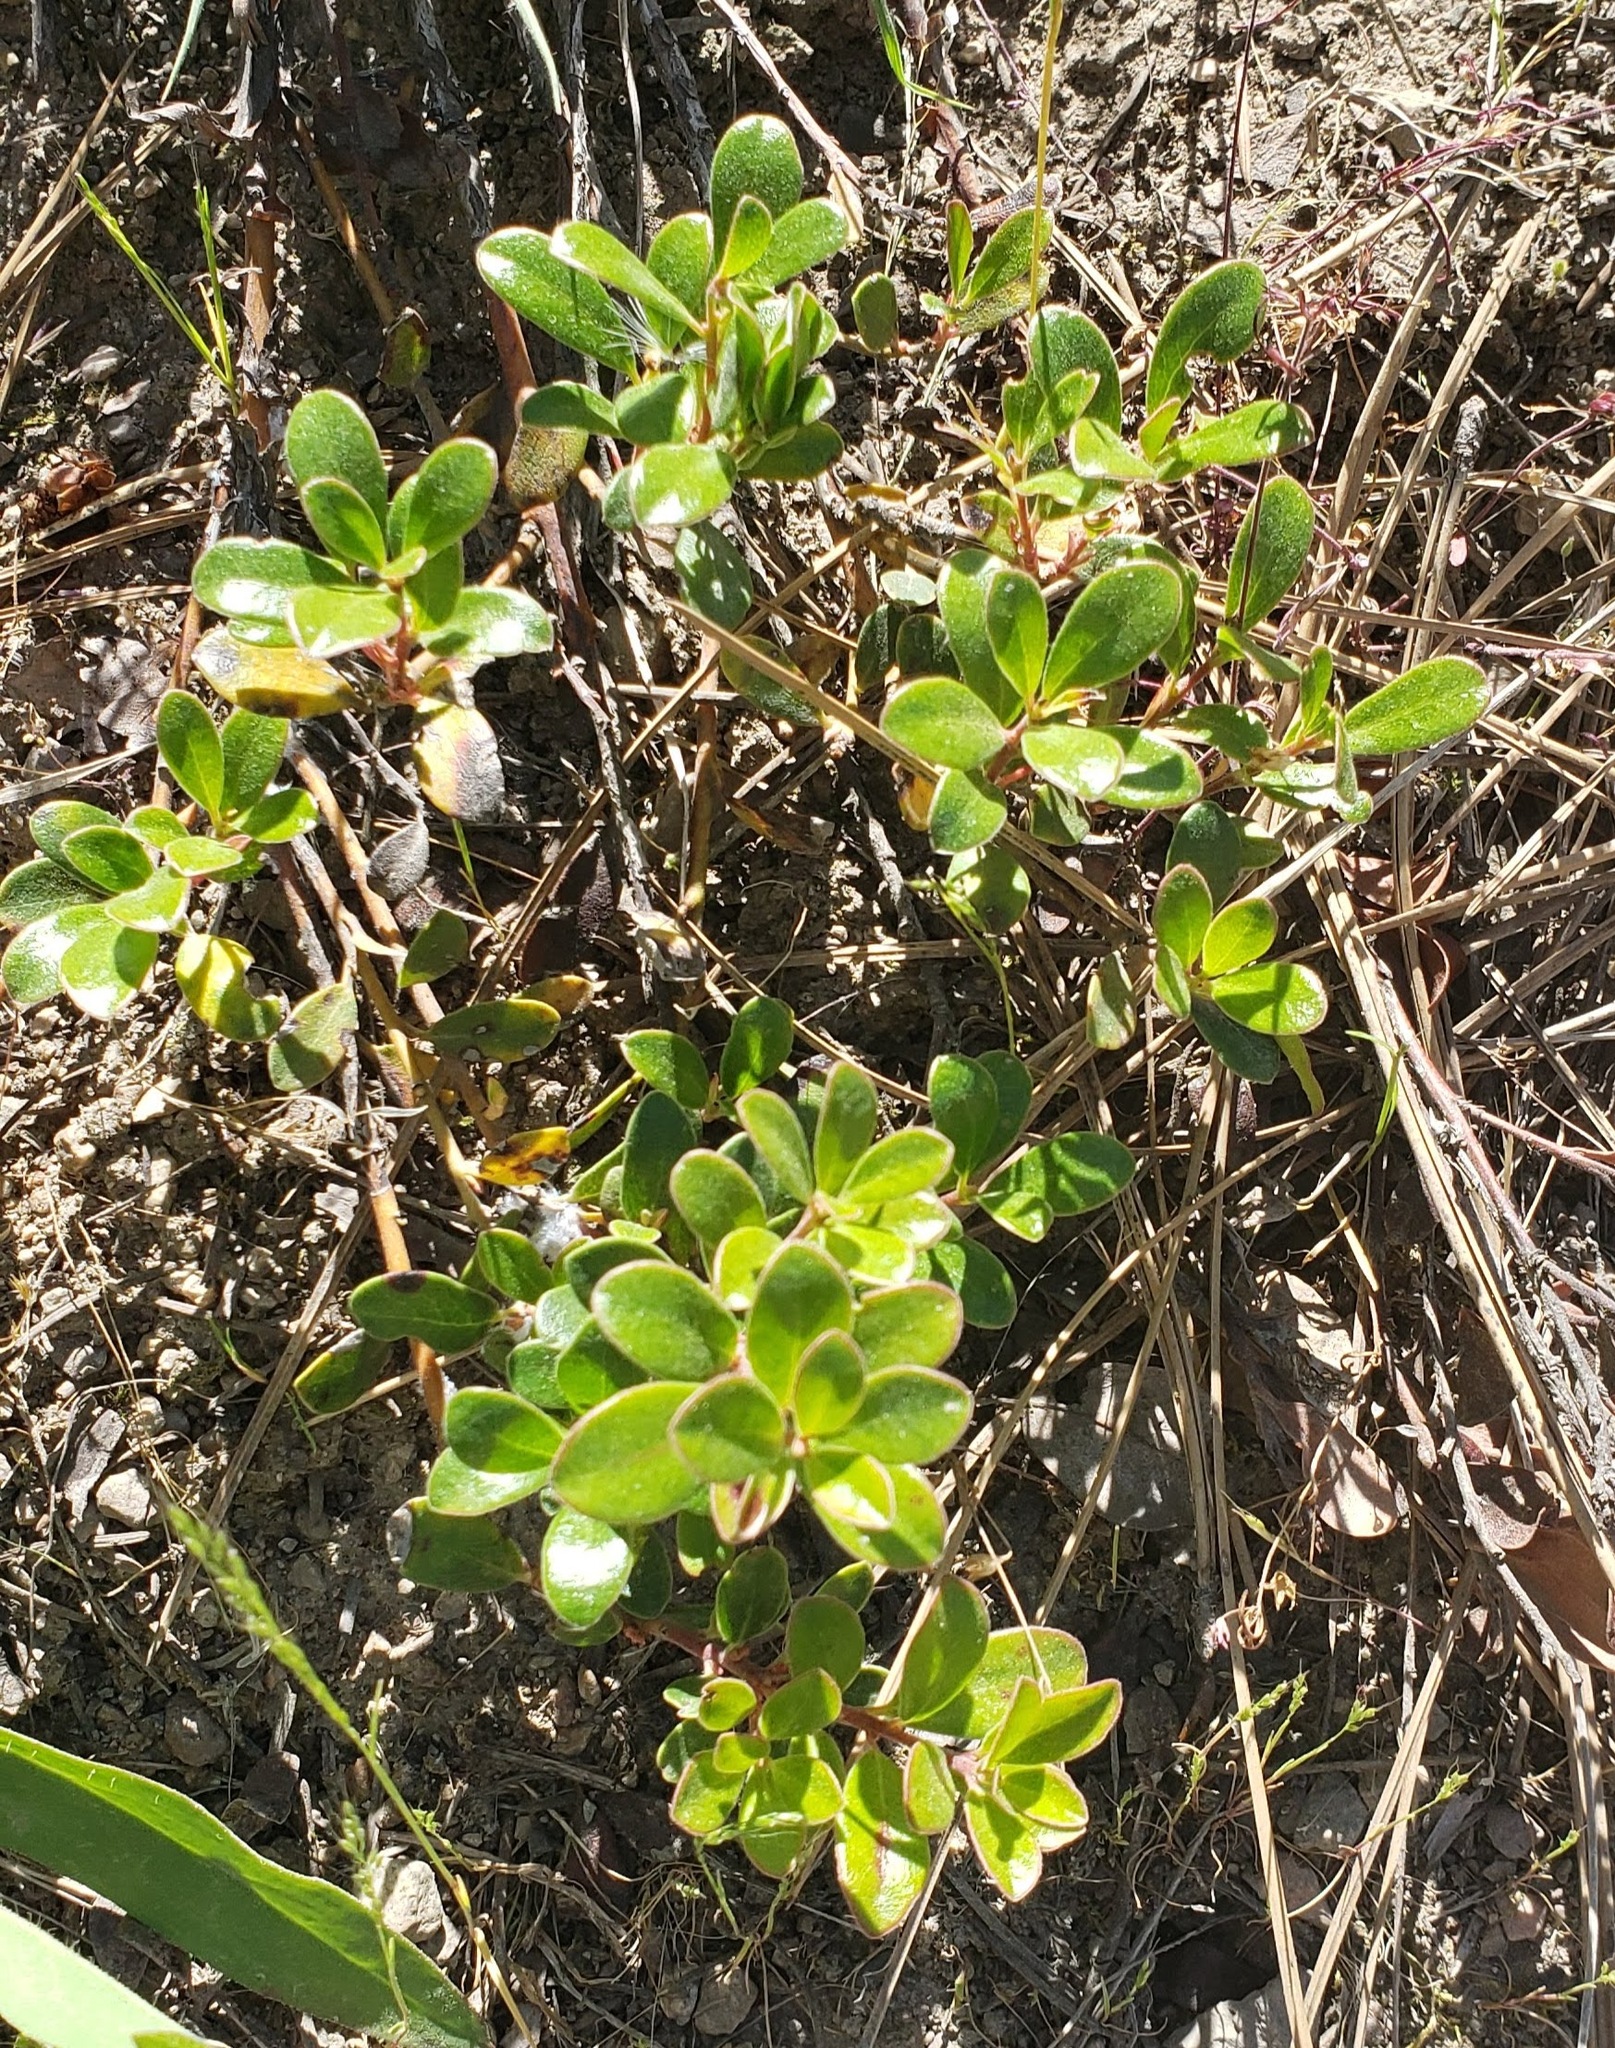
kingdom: Plantae
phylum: Tracheophyta
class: Magnoliopsida
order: Ericales
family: Ericaceae
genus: Arctostaphylos
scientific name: Arctostaphylos uva-ursi
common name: Bearberry
